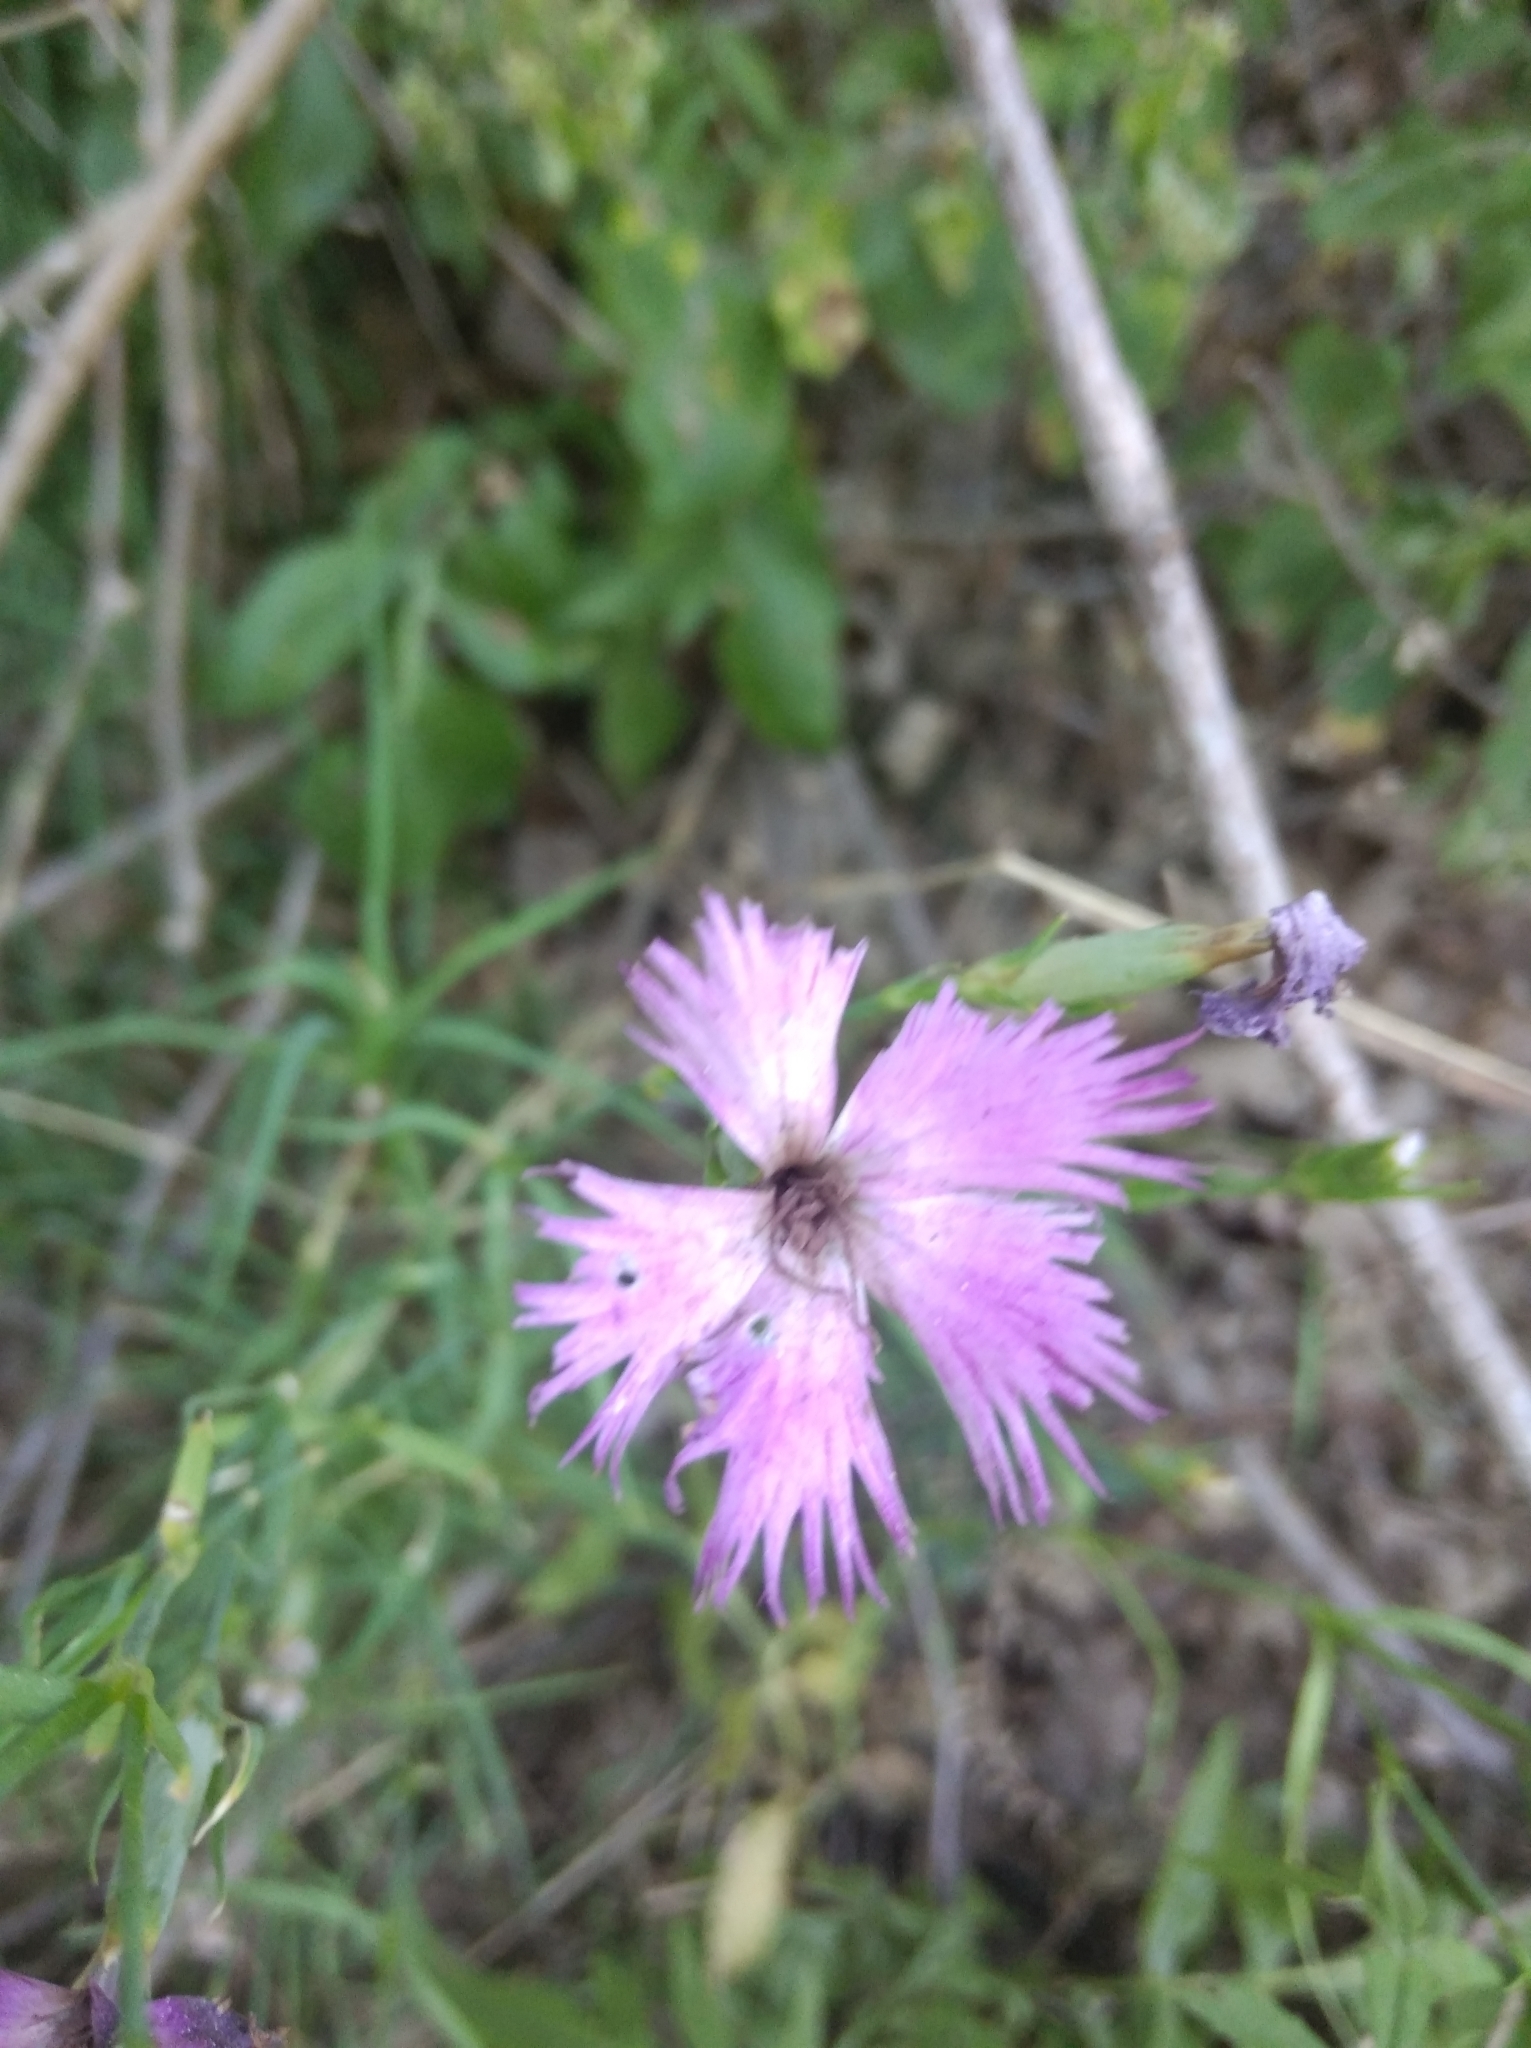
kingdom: Plantae
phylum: Tracheophyta
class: Magnoliopsida
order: Caryophyllales
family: Caryophyllaceae
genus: Dianthus
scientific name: Dianthus hyssopifolius
